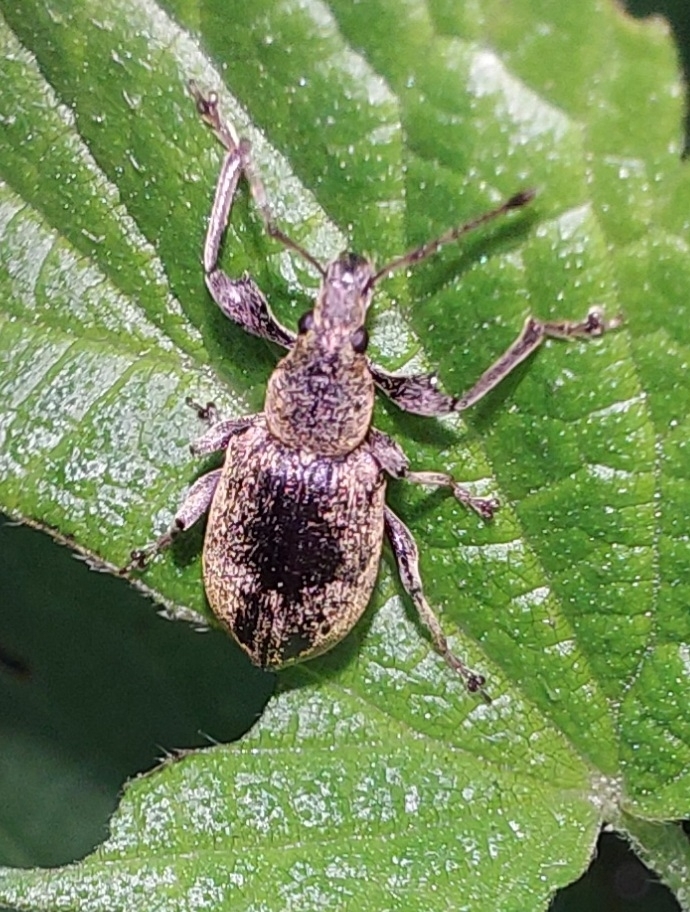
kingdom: Animalia
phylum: Arthropoda
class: Insecta
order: Coleoptera
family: Curculionidae
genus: Phyllobius
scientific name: Phyllobius pomaceus
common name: Green nettle weevil
